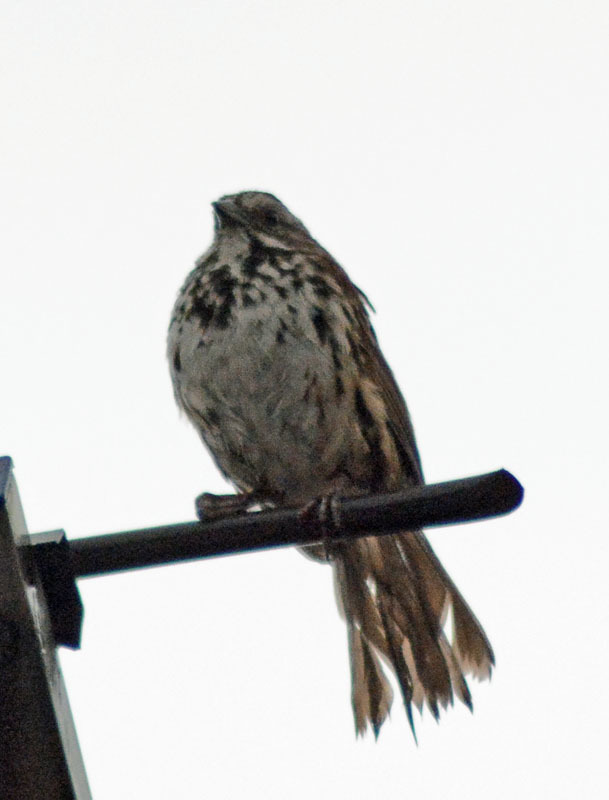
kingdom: Animalia
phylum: Chordata
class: Aves
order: Passeriformes
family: Passerellidae
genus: Melospiza
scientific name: Melospiza melodia
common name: Song sparrow
